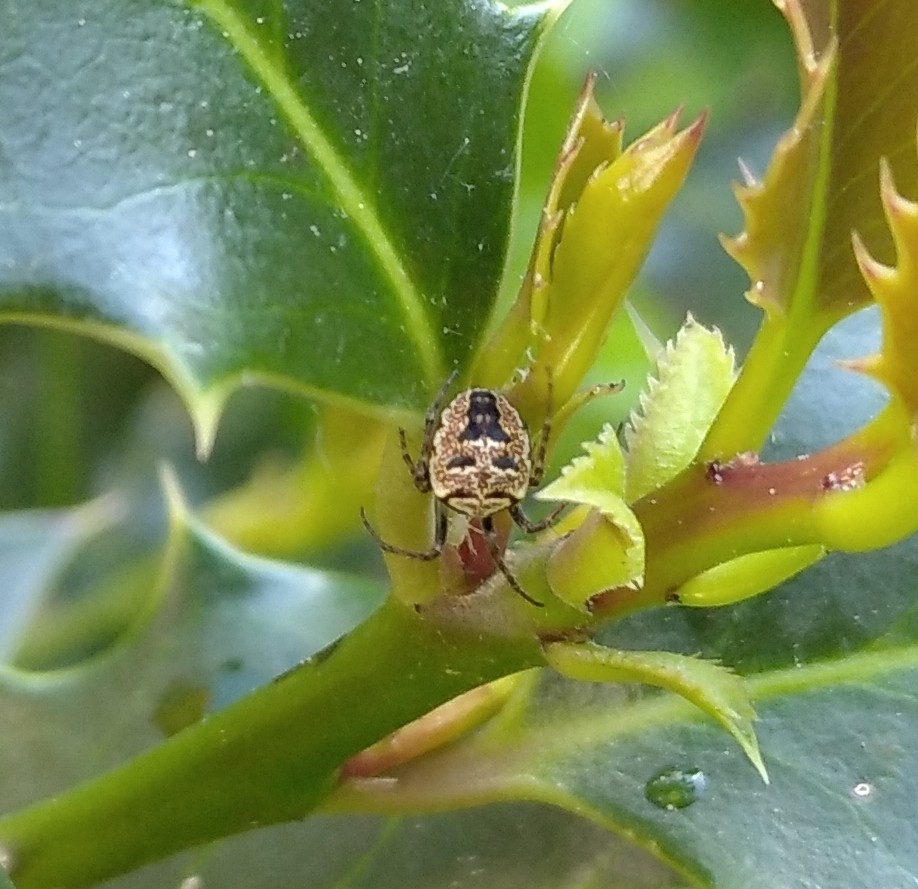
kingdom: Animalia
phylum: Arthropoda
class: Arachnida
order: Araneae
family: Araneidae
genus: Zilla
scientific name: Zilla diodia
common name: Zilla diodia
